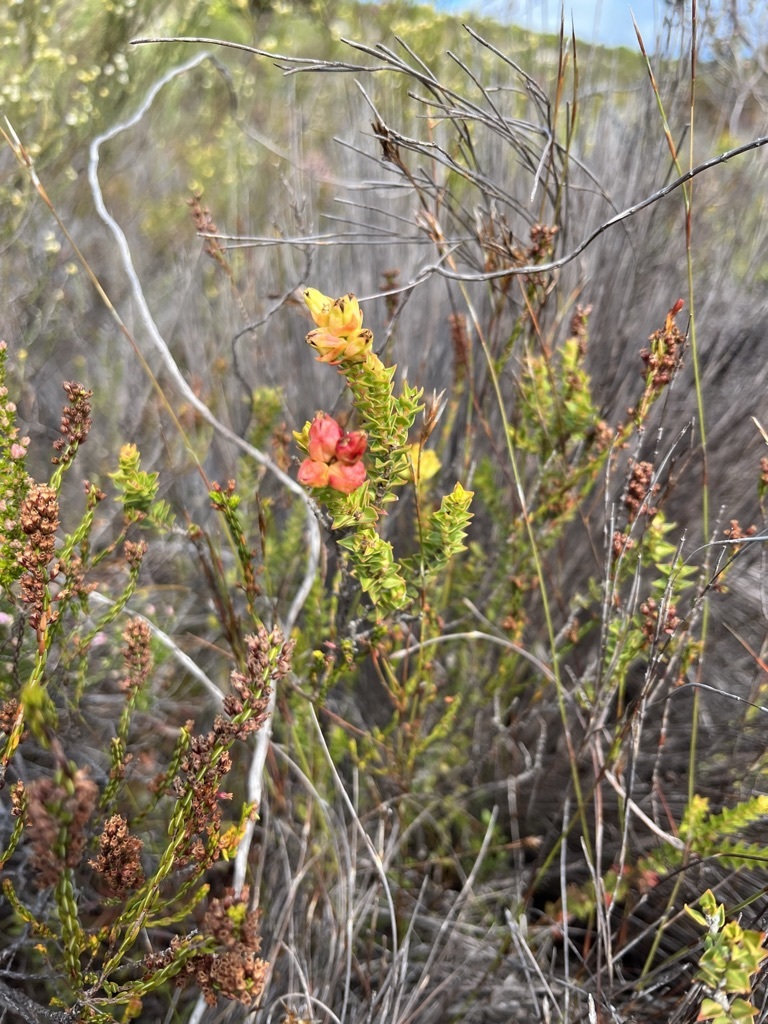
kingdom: Plantae
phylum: Tracheophyta
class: Magnoliopsida
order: Myrtales
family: Penaeaceae
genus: Penaea
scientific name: Penaea mucronata
